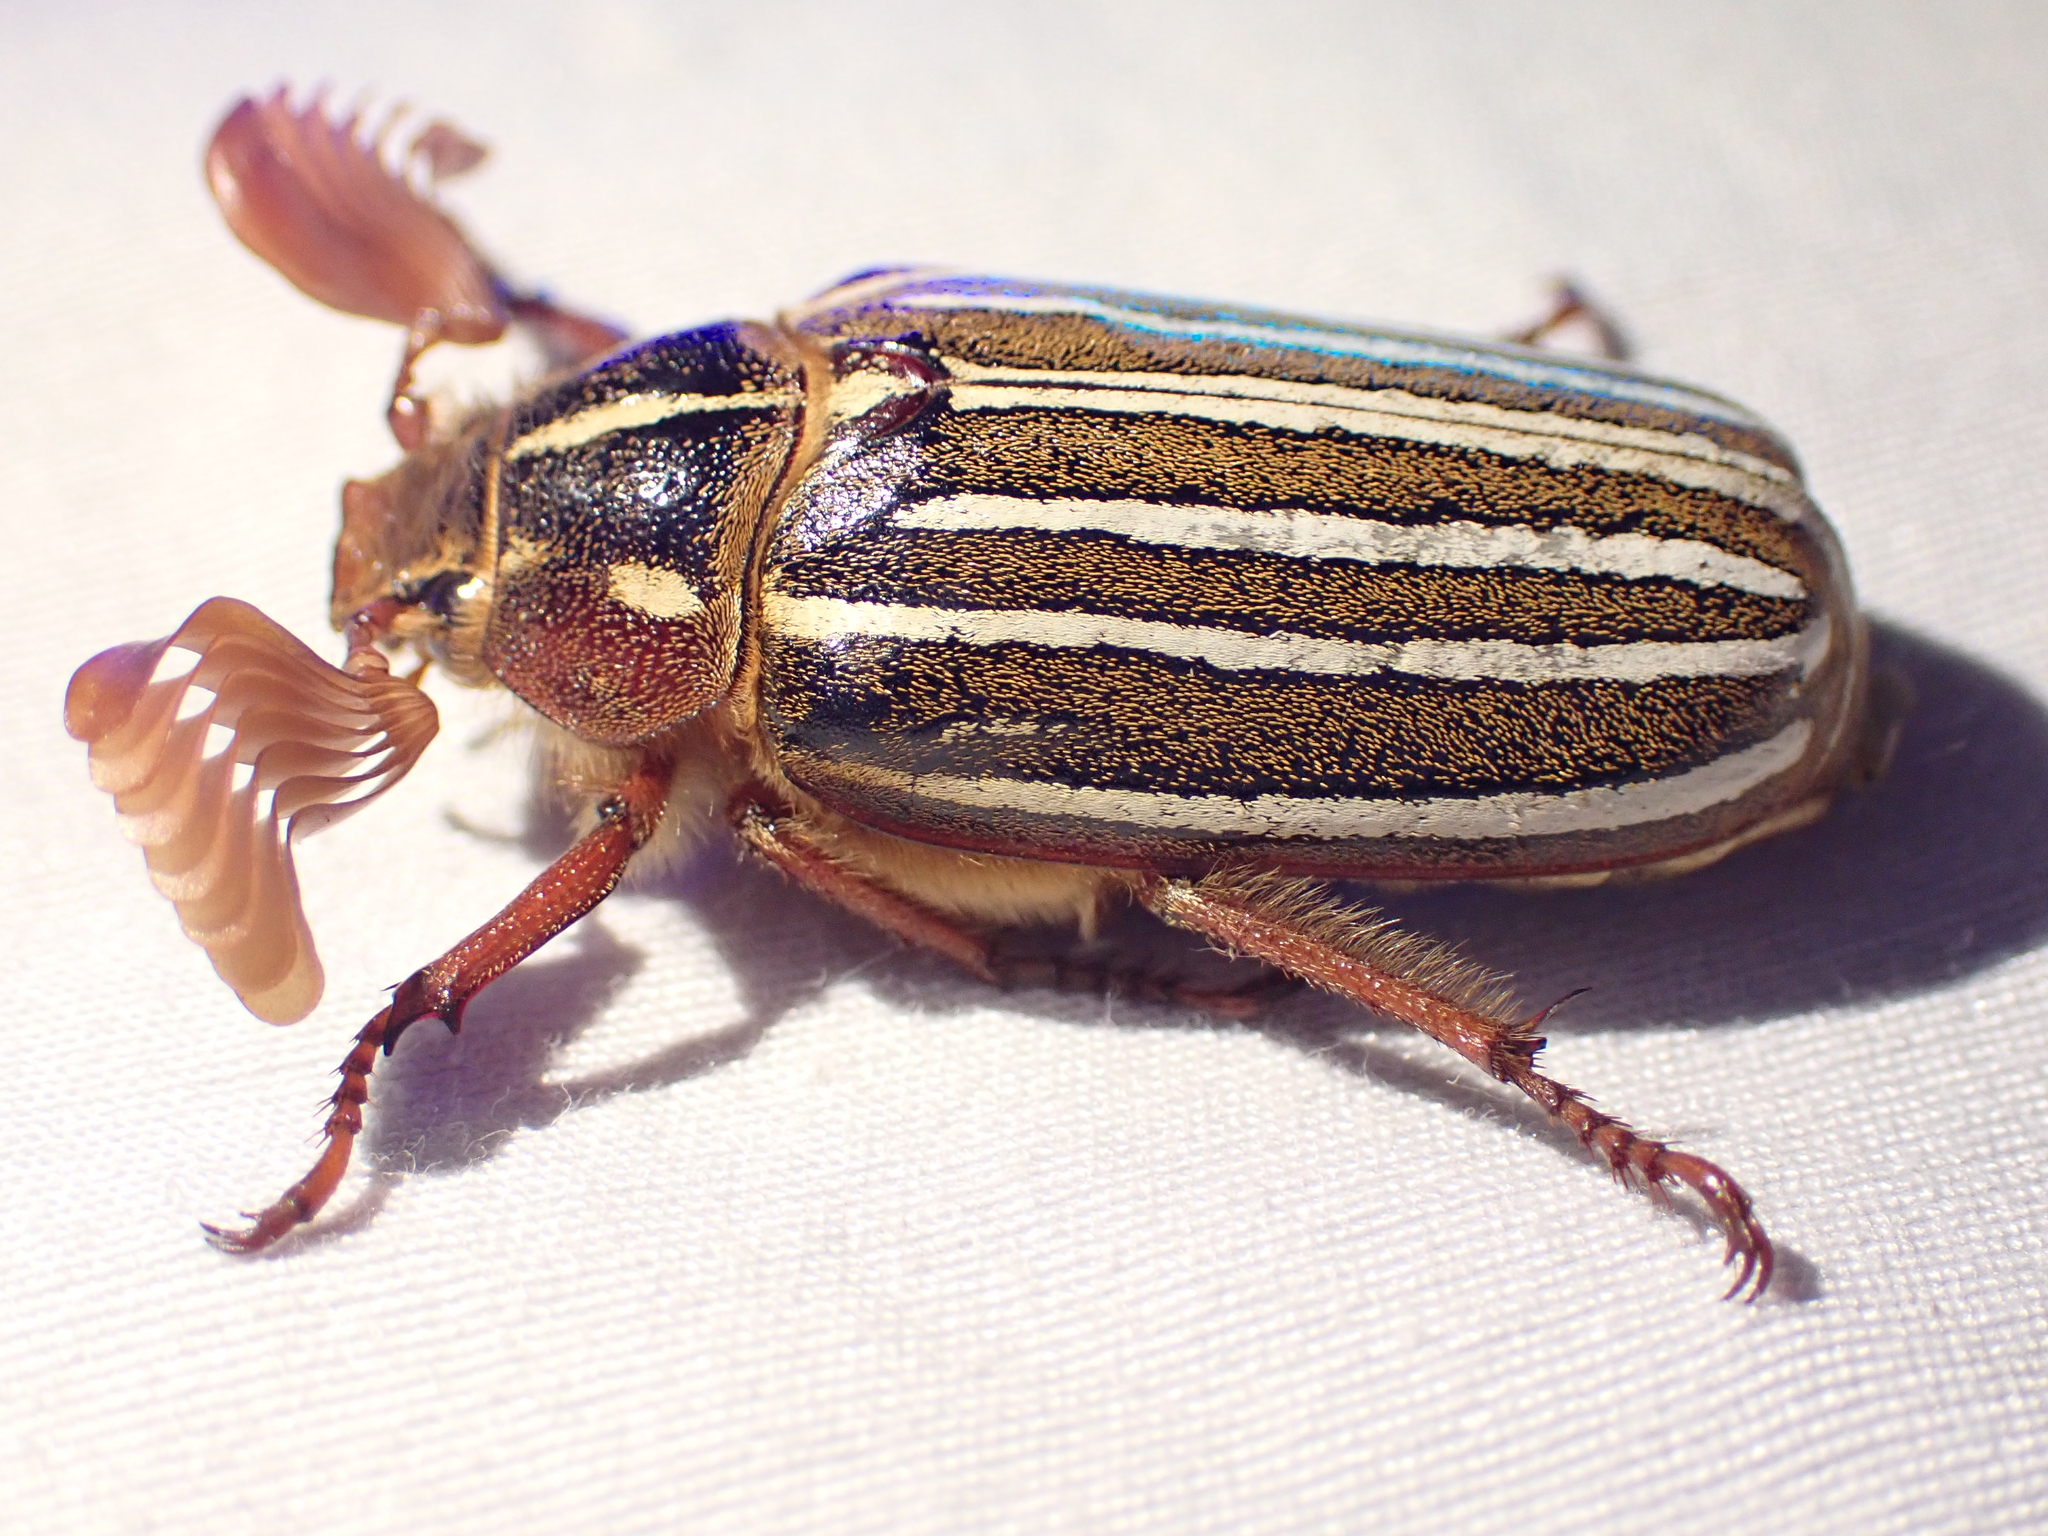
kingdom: Animalia
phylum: Arthropoda
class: Insecta
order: Coleoptera
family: Scarabaeidae
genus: Polyphylla
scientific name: Polyphylla crinita
